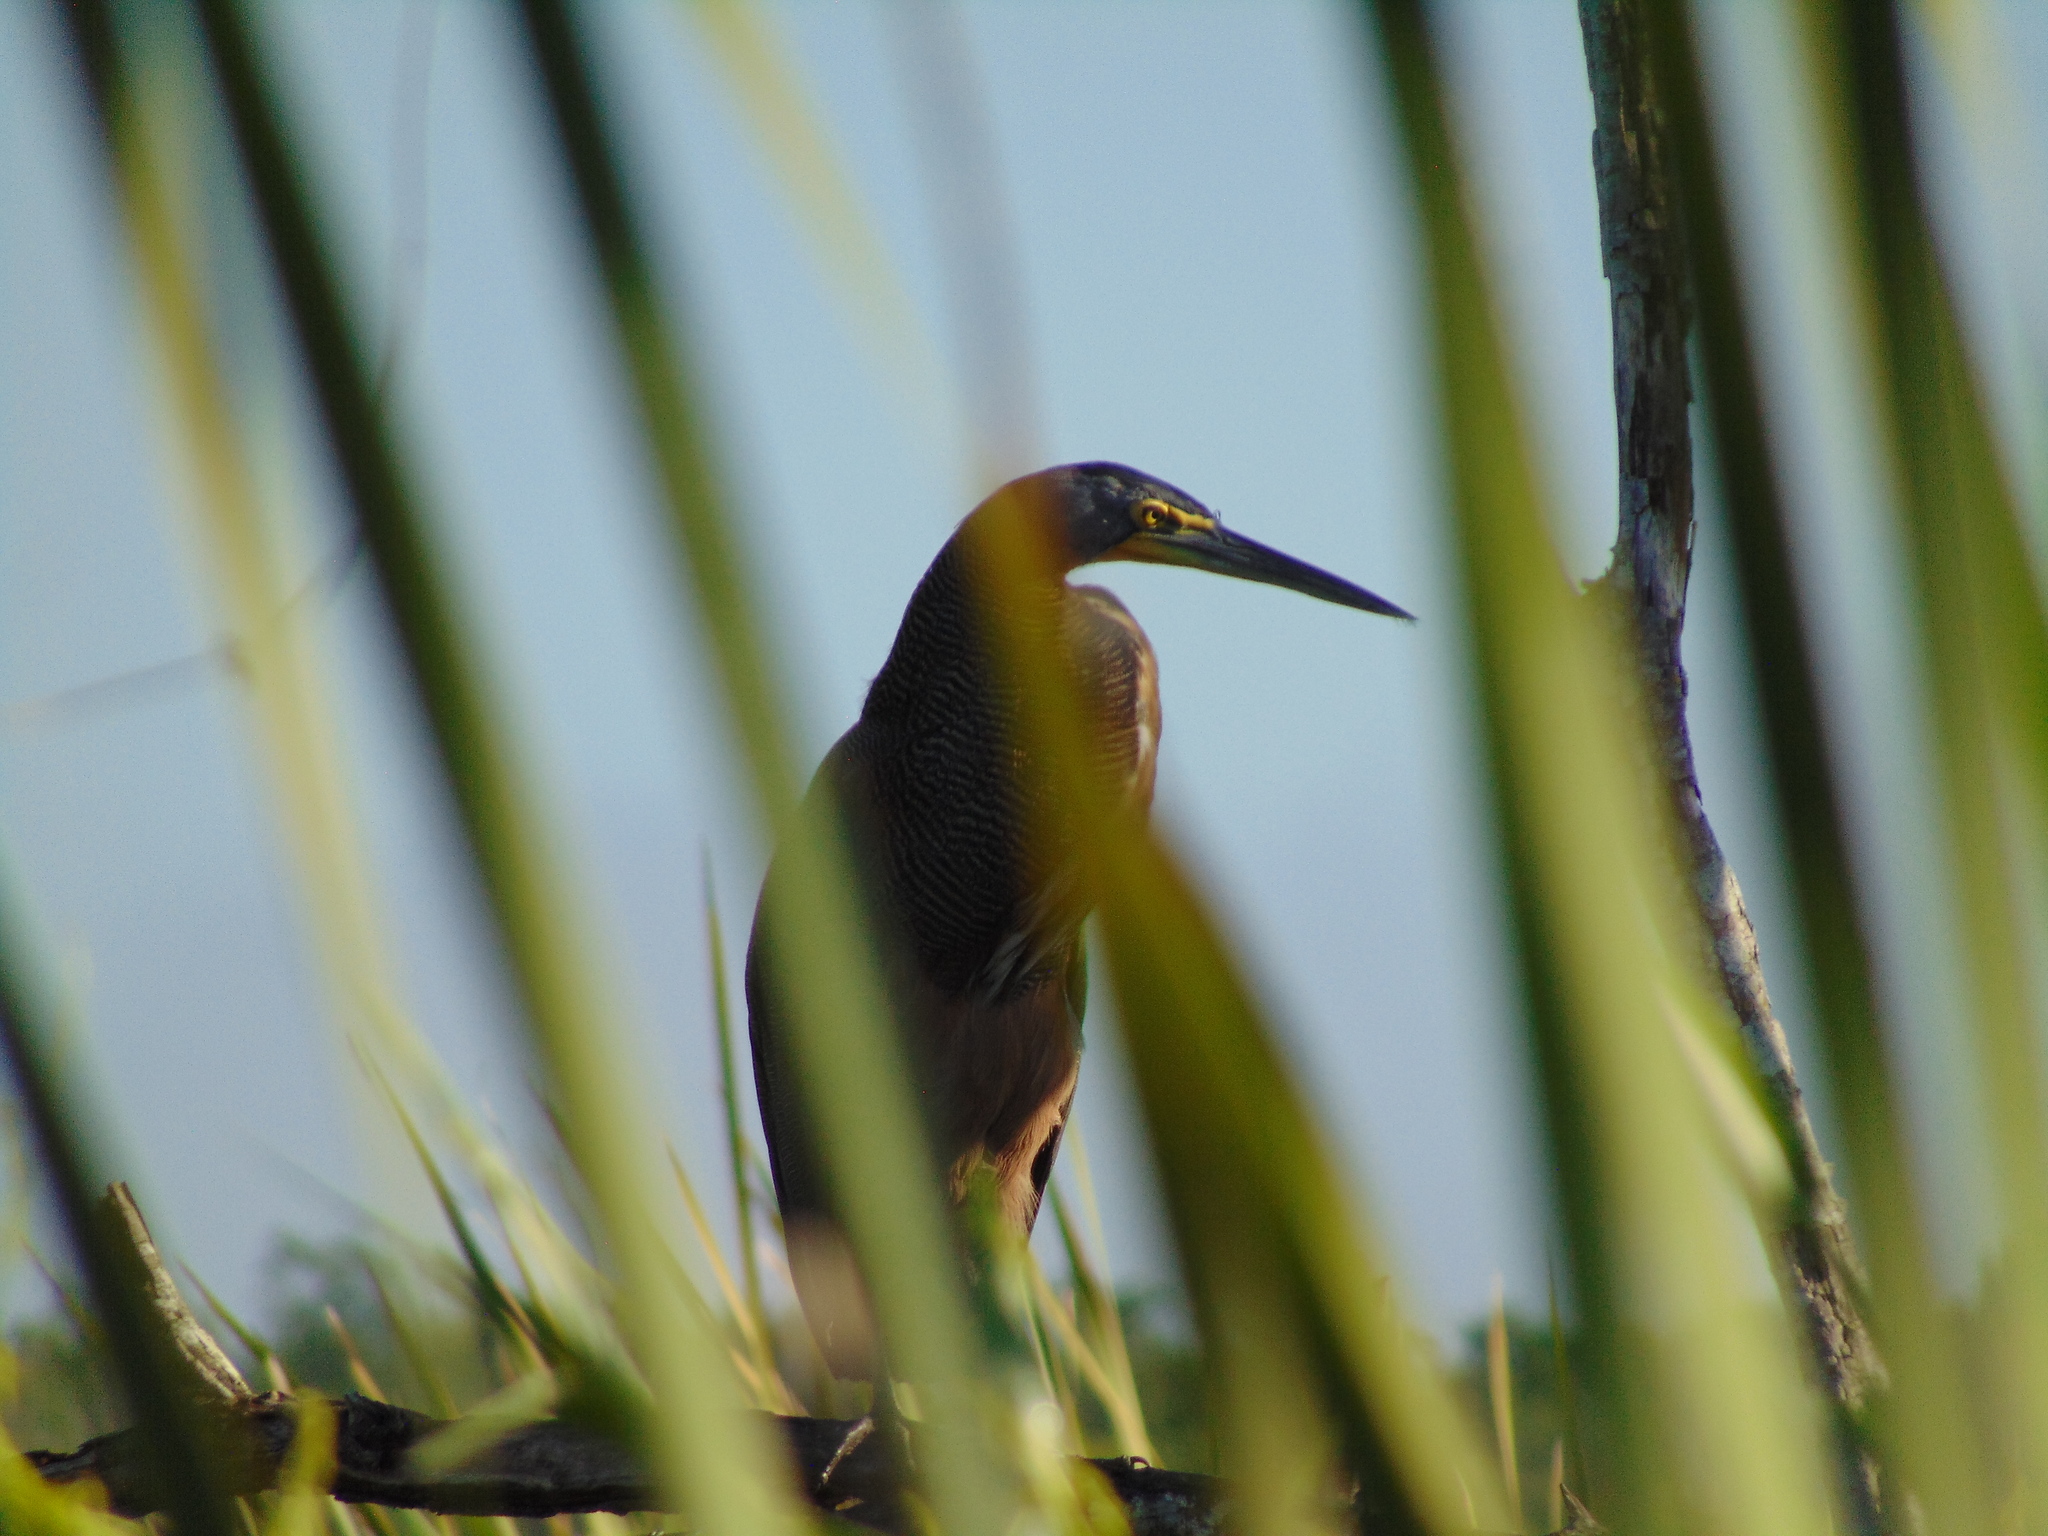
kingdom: Animalia
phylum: Chordata
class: Aves
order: Pelecaniformes
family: Ardeidae
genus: Tigrisoma
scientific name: Tigrisoma mexicanum
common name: Bare-throated tiger-heron
